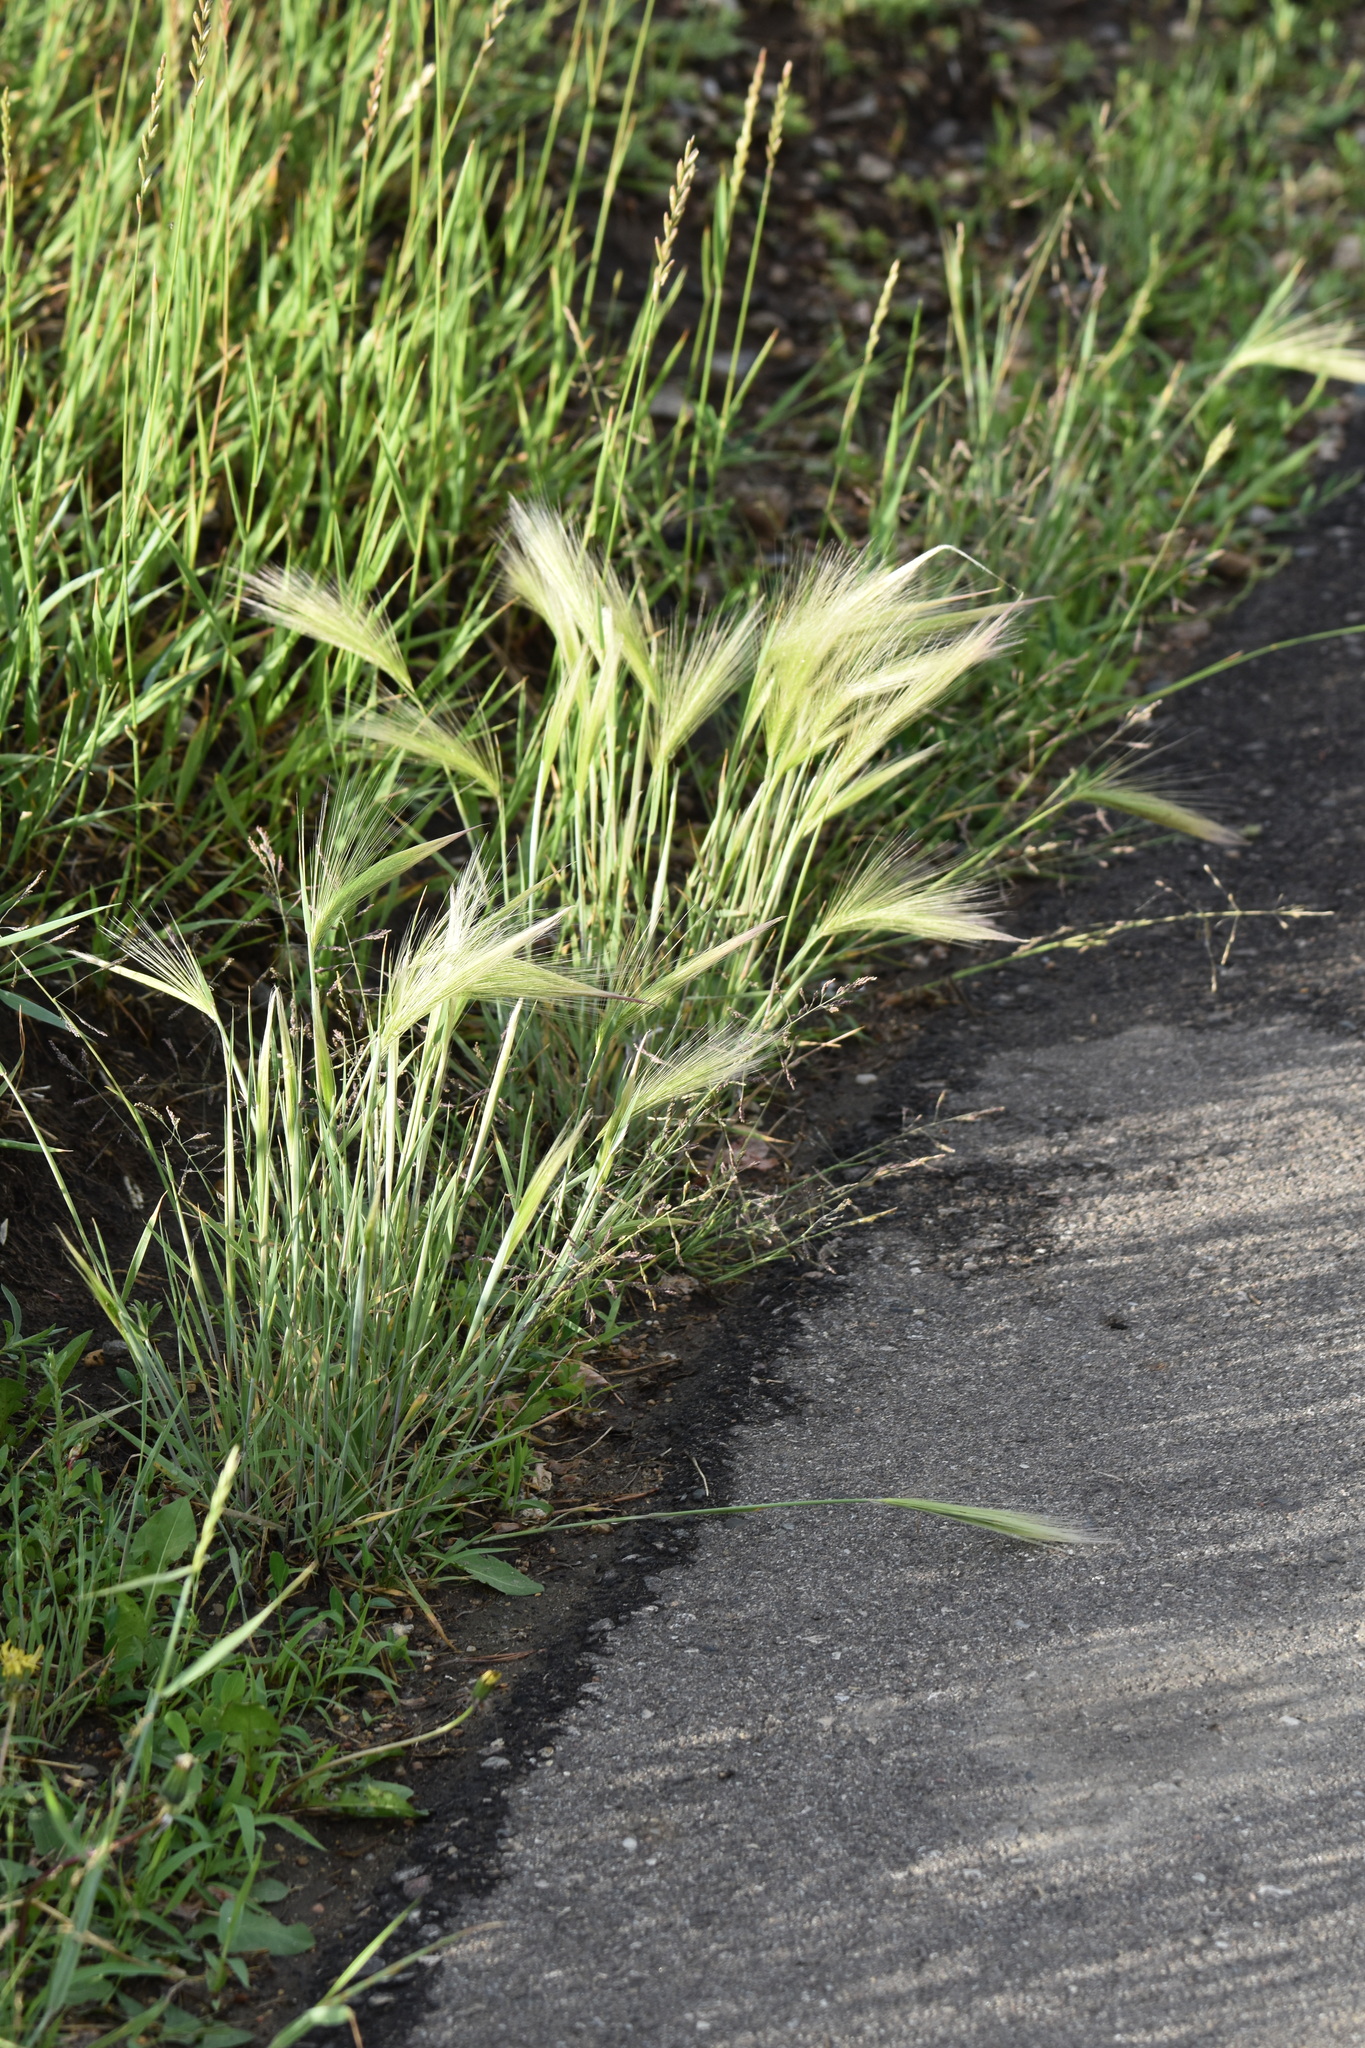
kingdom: Plantae
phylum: Tracheophyta
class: Liliopsida
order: Poales
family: Poaceae
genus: Hordeum
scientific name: Hordeum jubatum
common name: Foxtail barley
